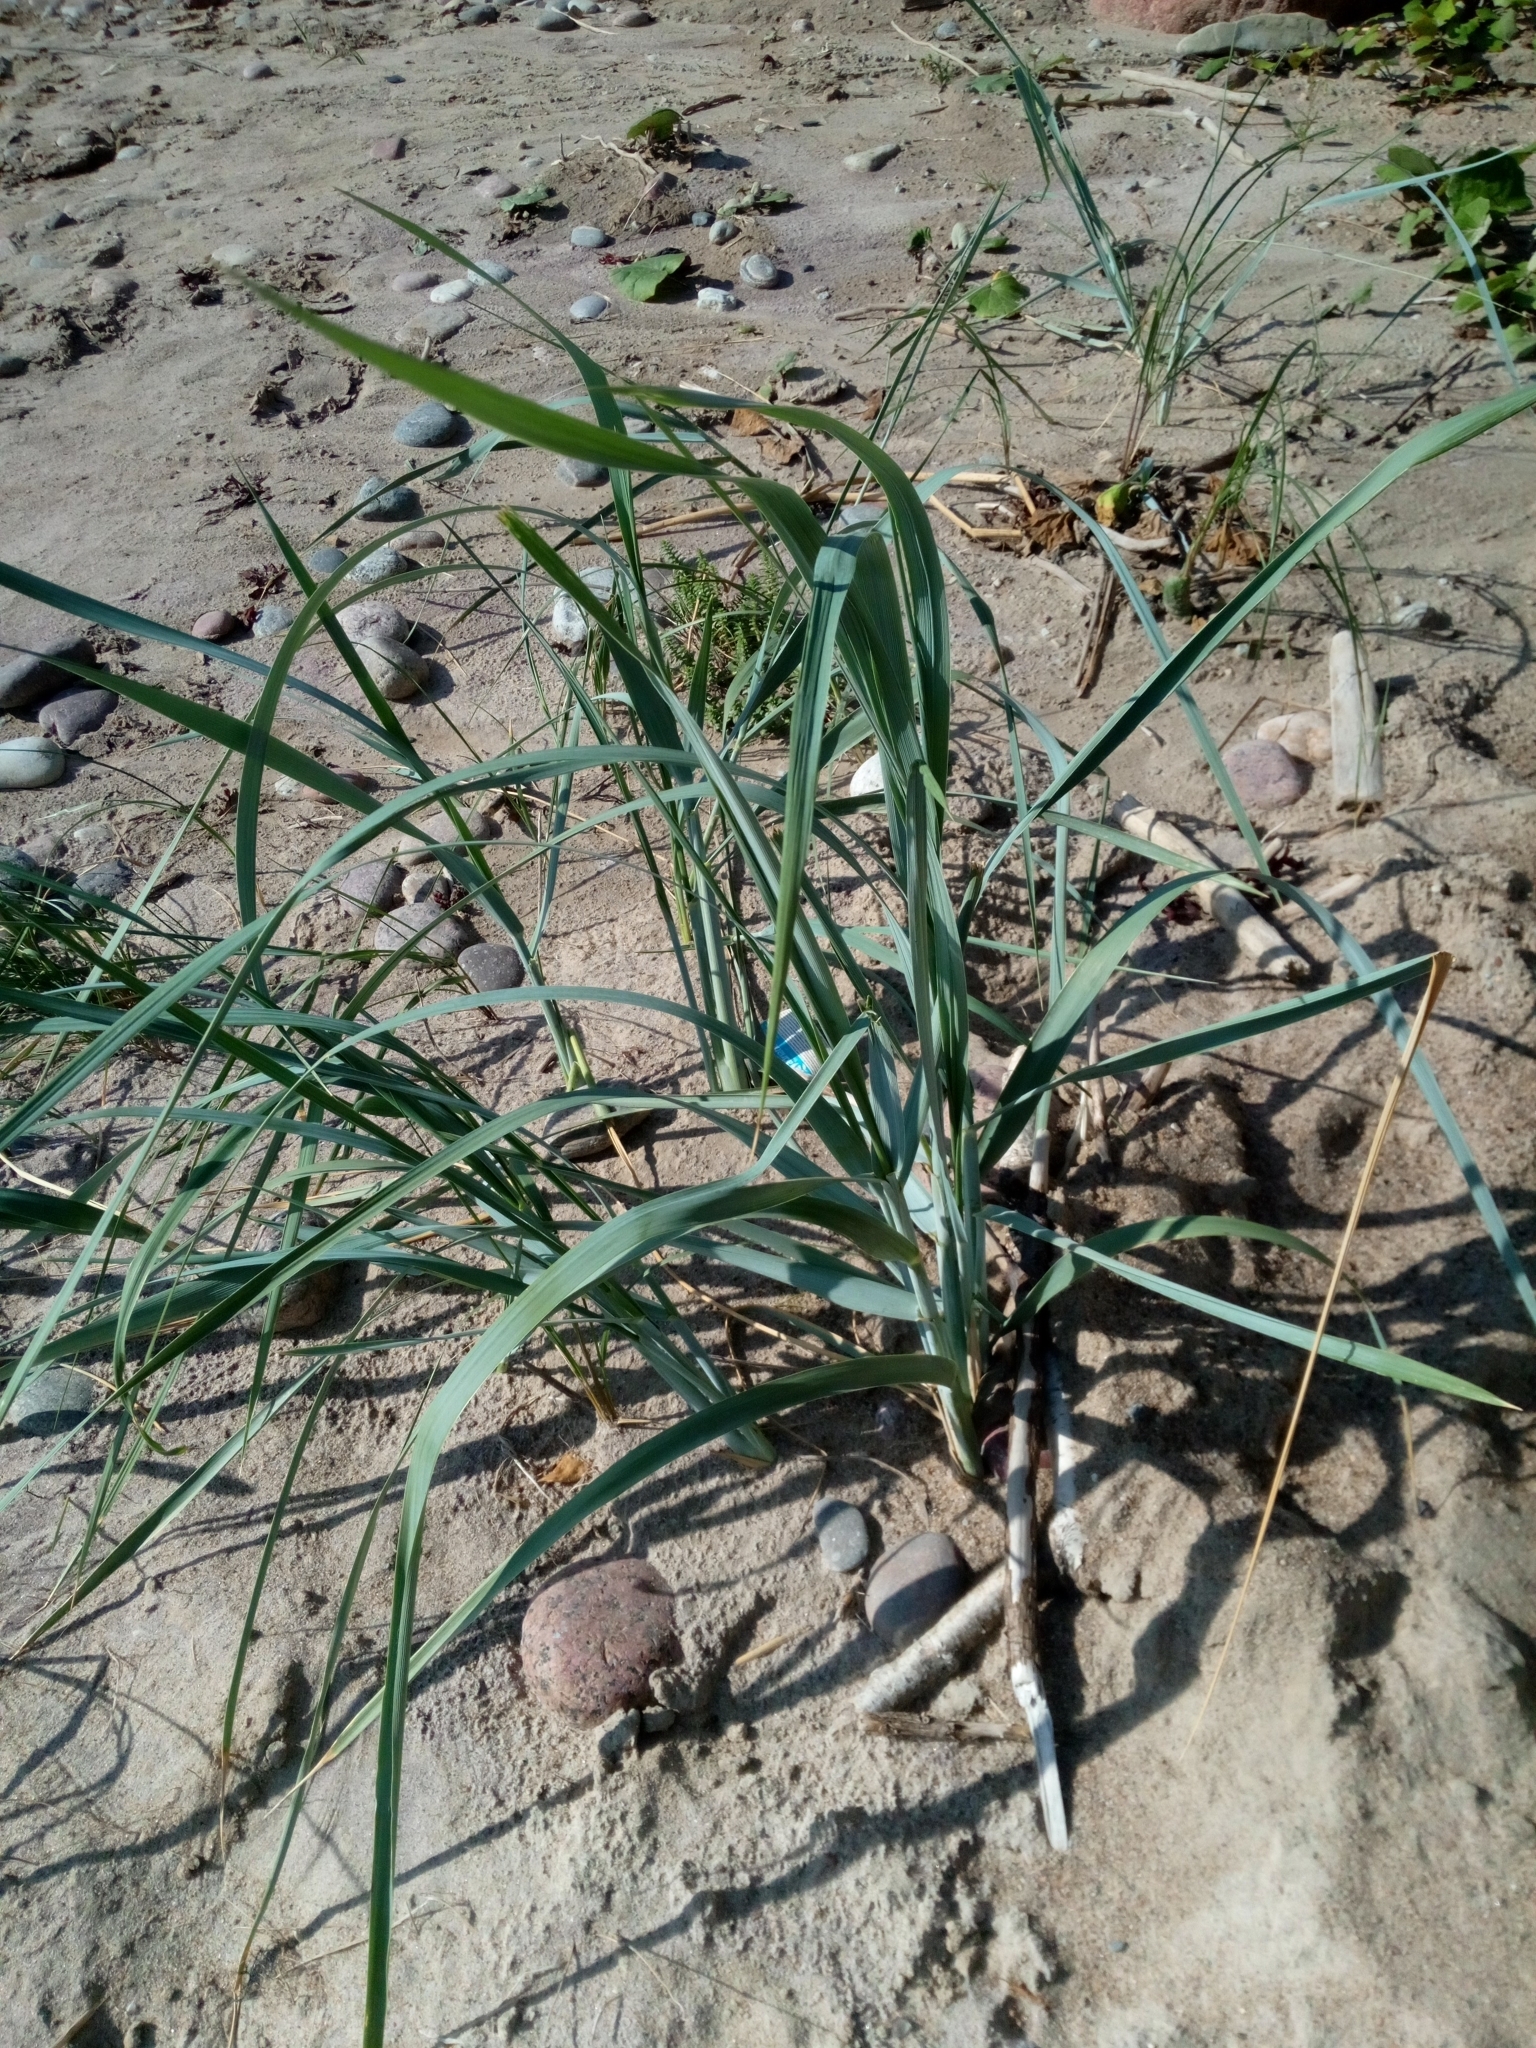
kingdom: Plantae
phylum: Tracheophyta
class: Liliopsida
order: Poales
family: Poaceae
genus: Leymus
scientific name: Leymus arenarius
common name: Lyme-grass
